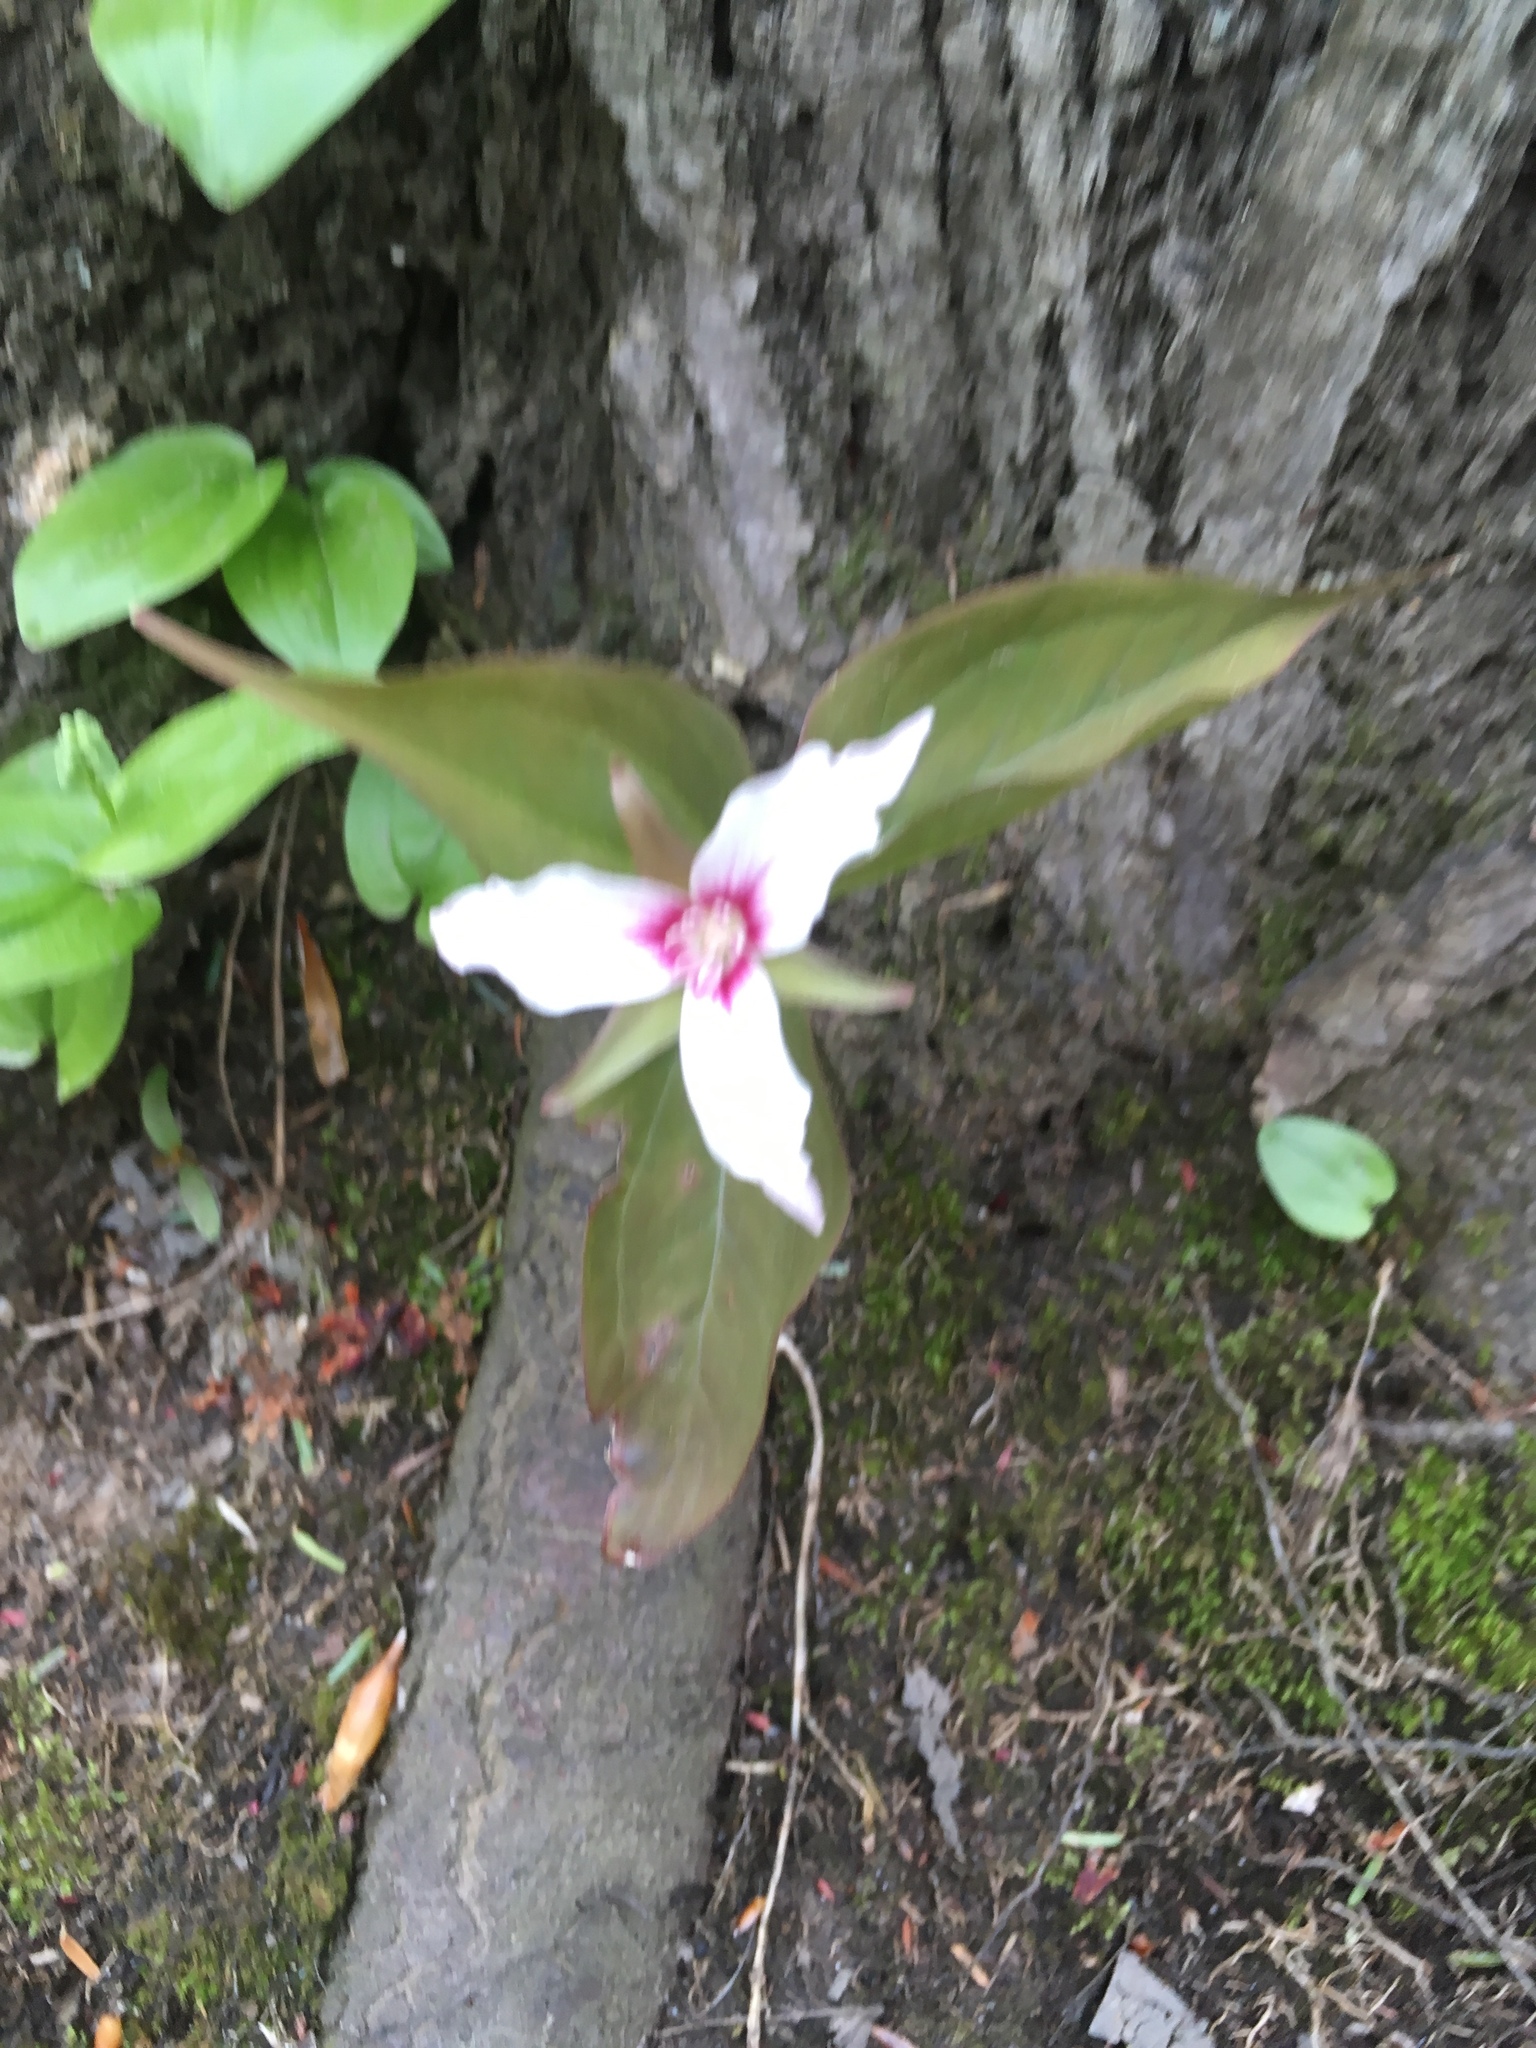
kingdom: Plantae
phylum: Tracheophyta
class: Liliopsida
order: Liliales
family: Melanthiaceae
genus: Trillium
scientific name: Trillium undulatum
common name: Paint trillium
